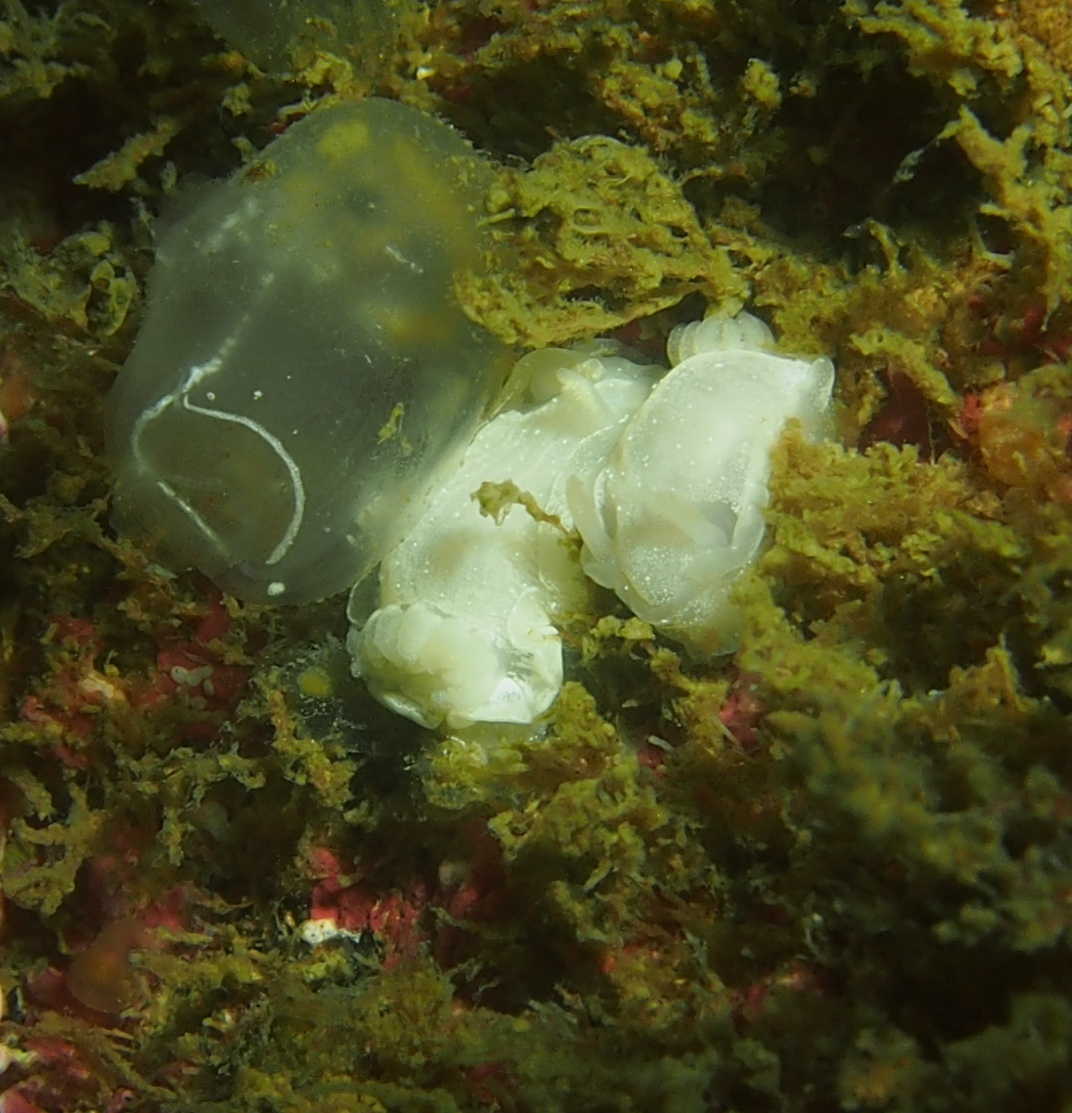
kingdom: Animalia
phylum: Mollusca
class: Gastropoda
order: Nudibranchia
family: Goniodorididae
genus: Okenia
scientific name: Okenia
